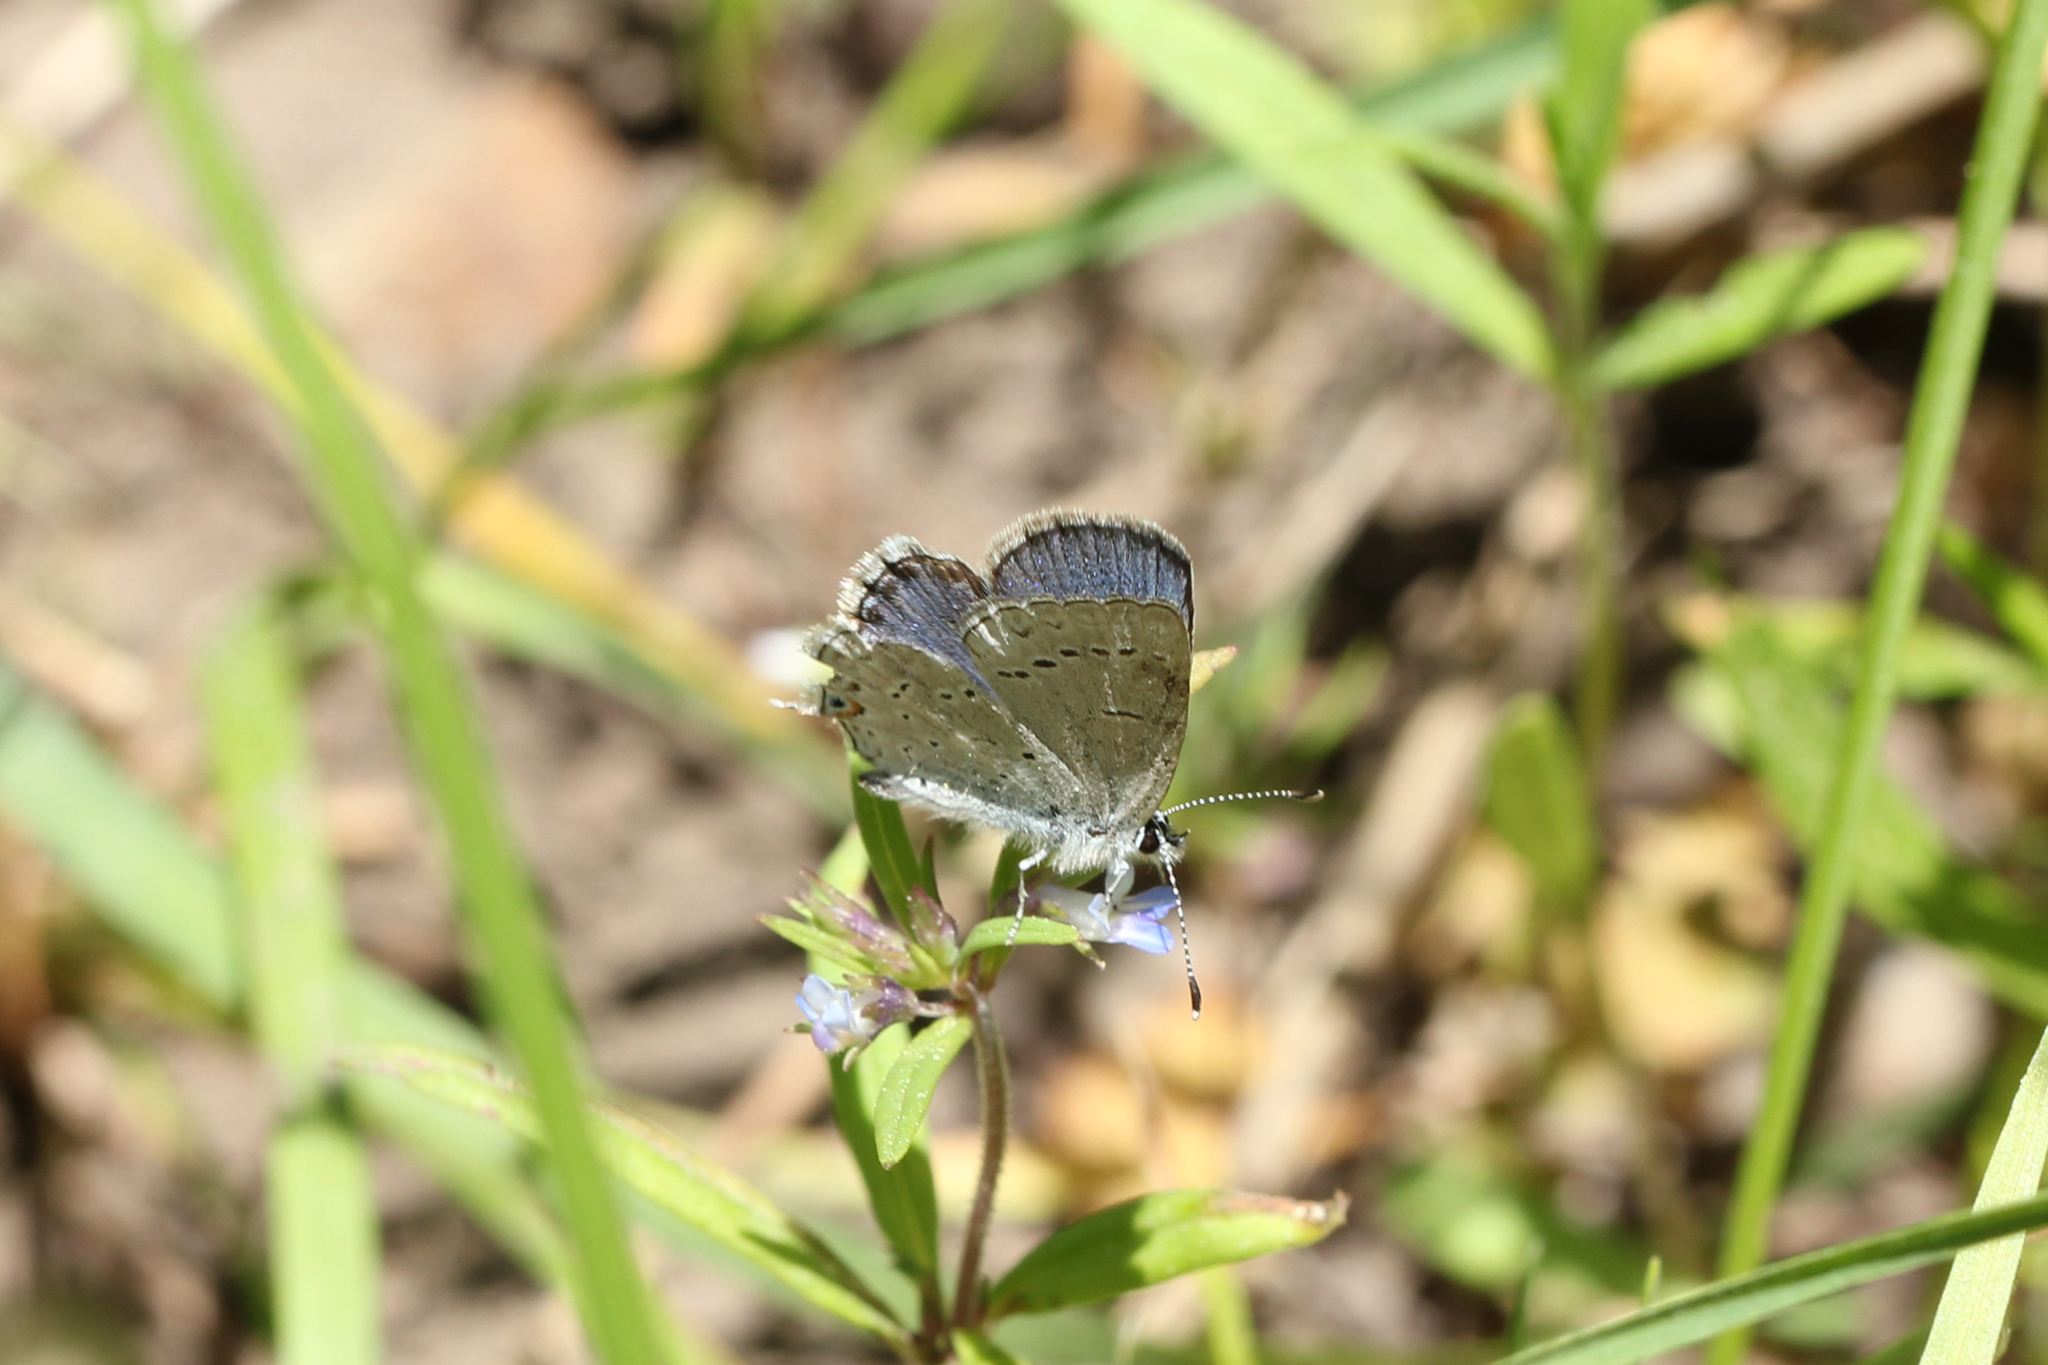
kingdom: Animalia
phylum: Arthropoda
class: Insecta
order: Lepidoptera
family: Lycaenidae
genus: Elkalyce
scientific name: Elkalyce amyntula
